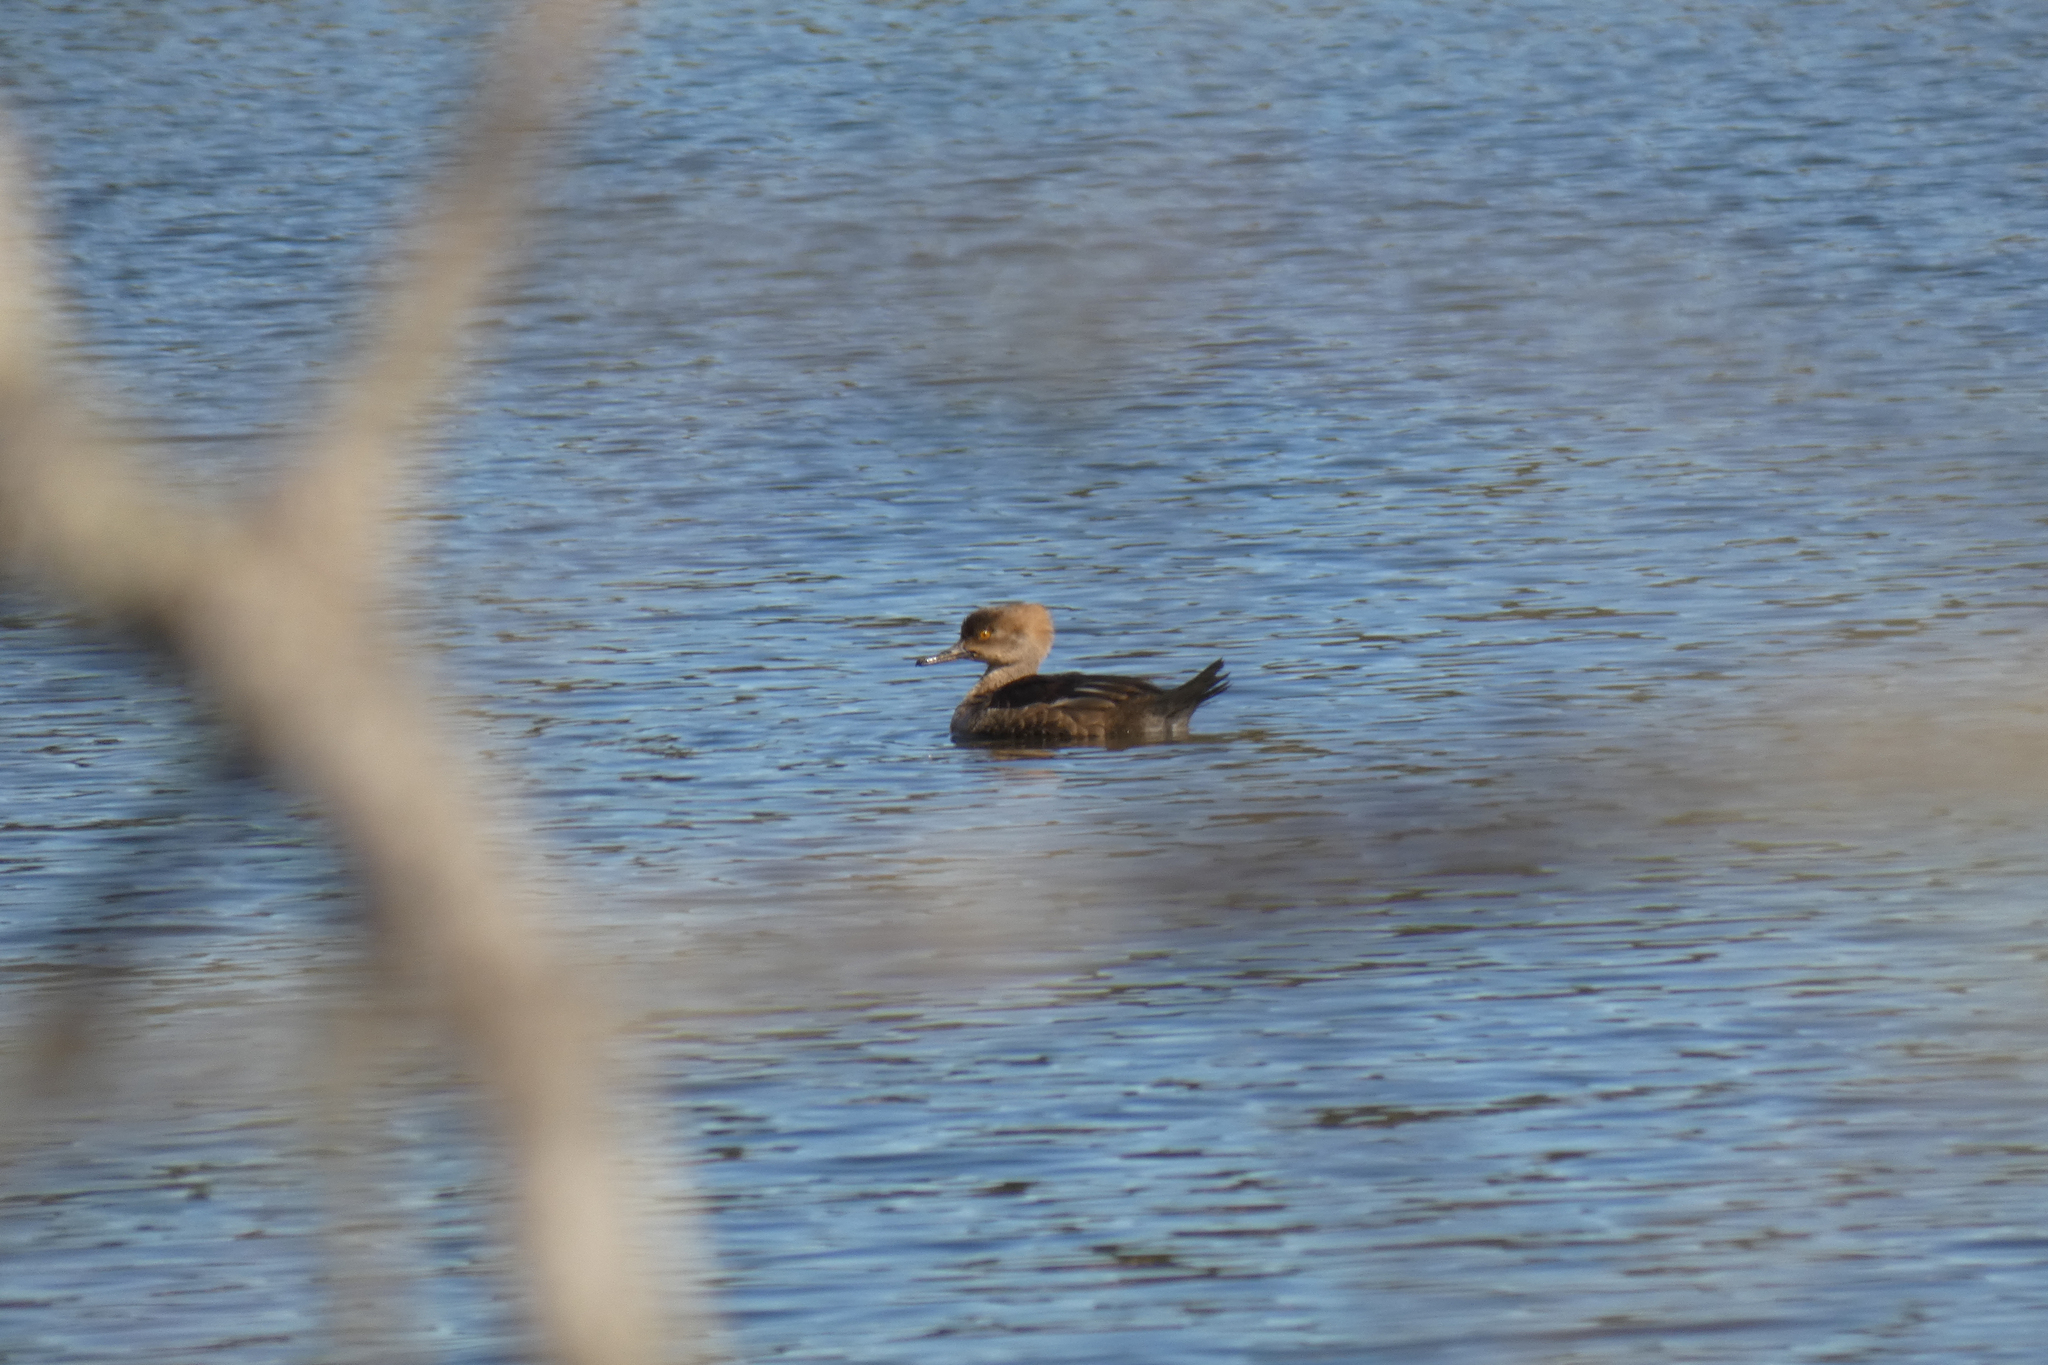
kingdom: Animalia
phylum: Chordata
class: Aves
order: Anseriformes
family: Anatidae
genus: Lophodytes
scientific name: Lophodytes cucullatus
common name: Hooded merganser
